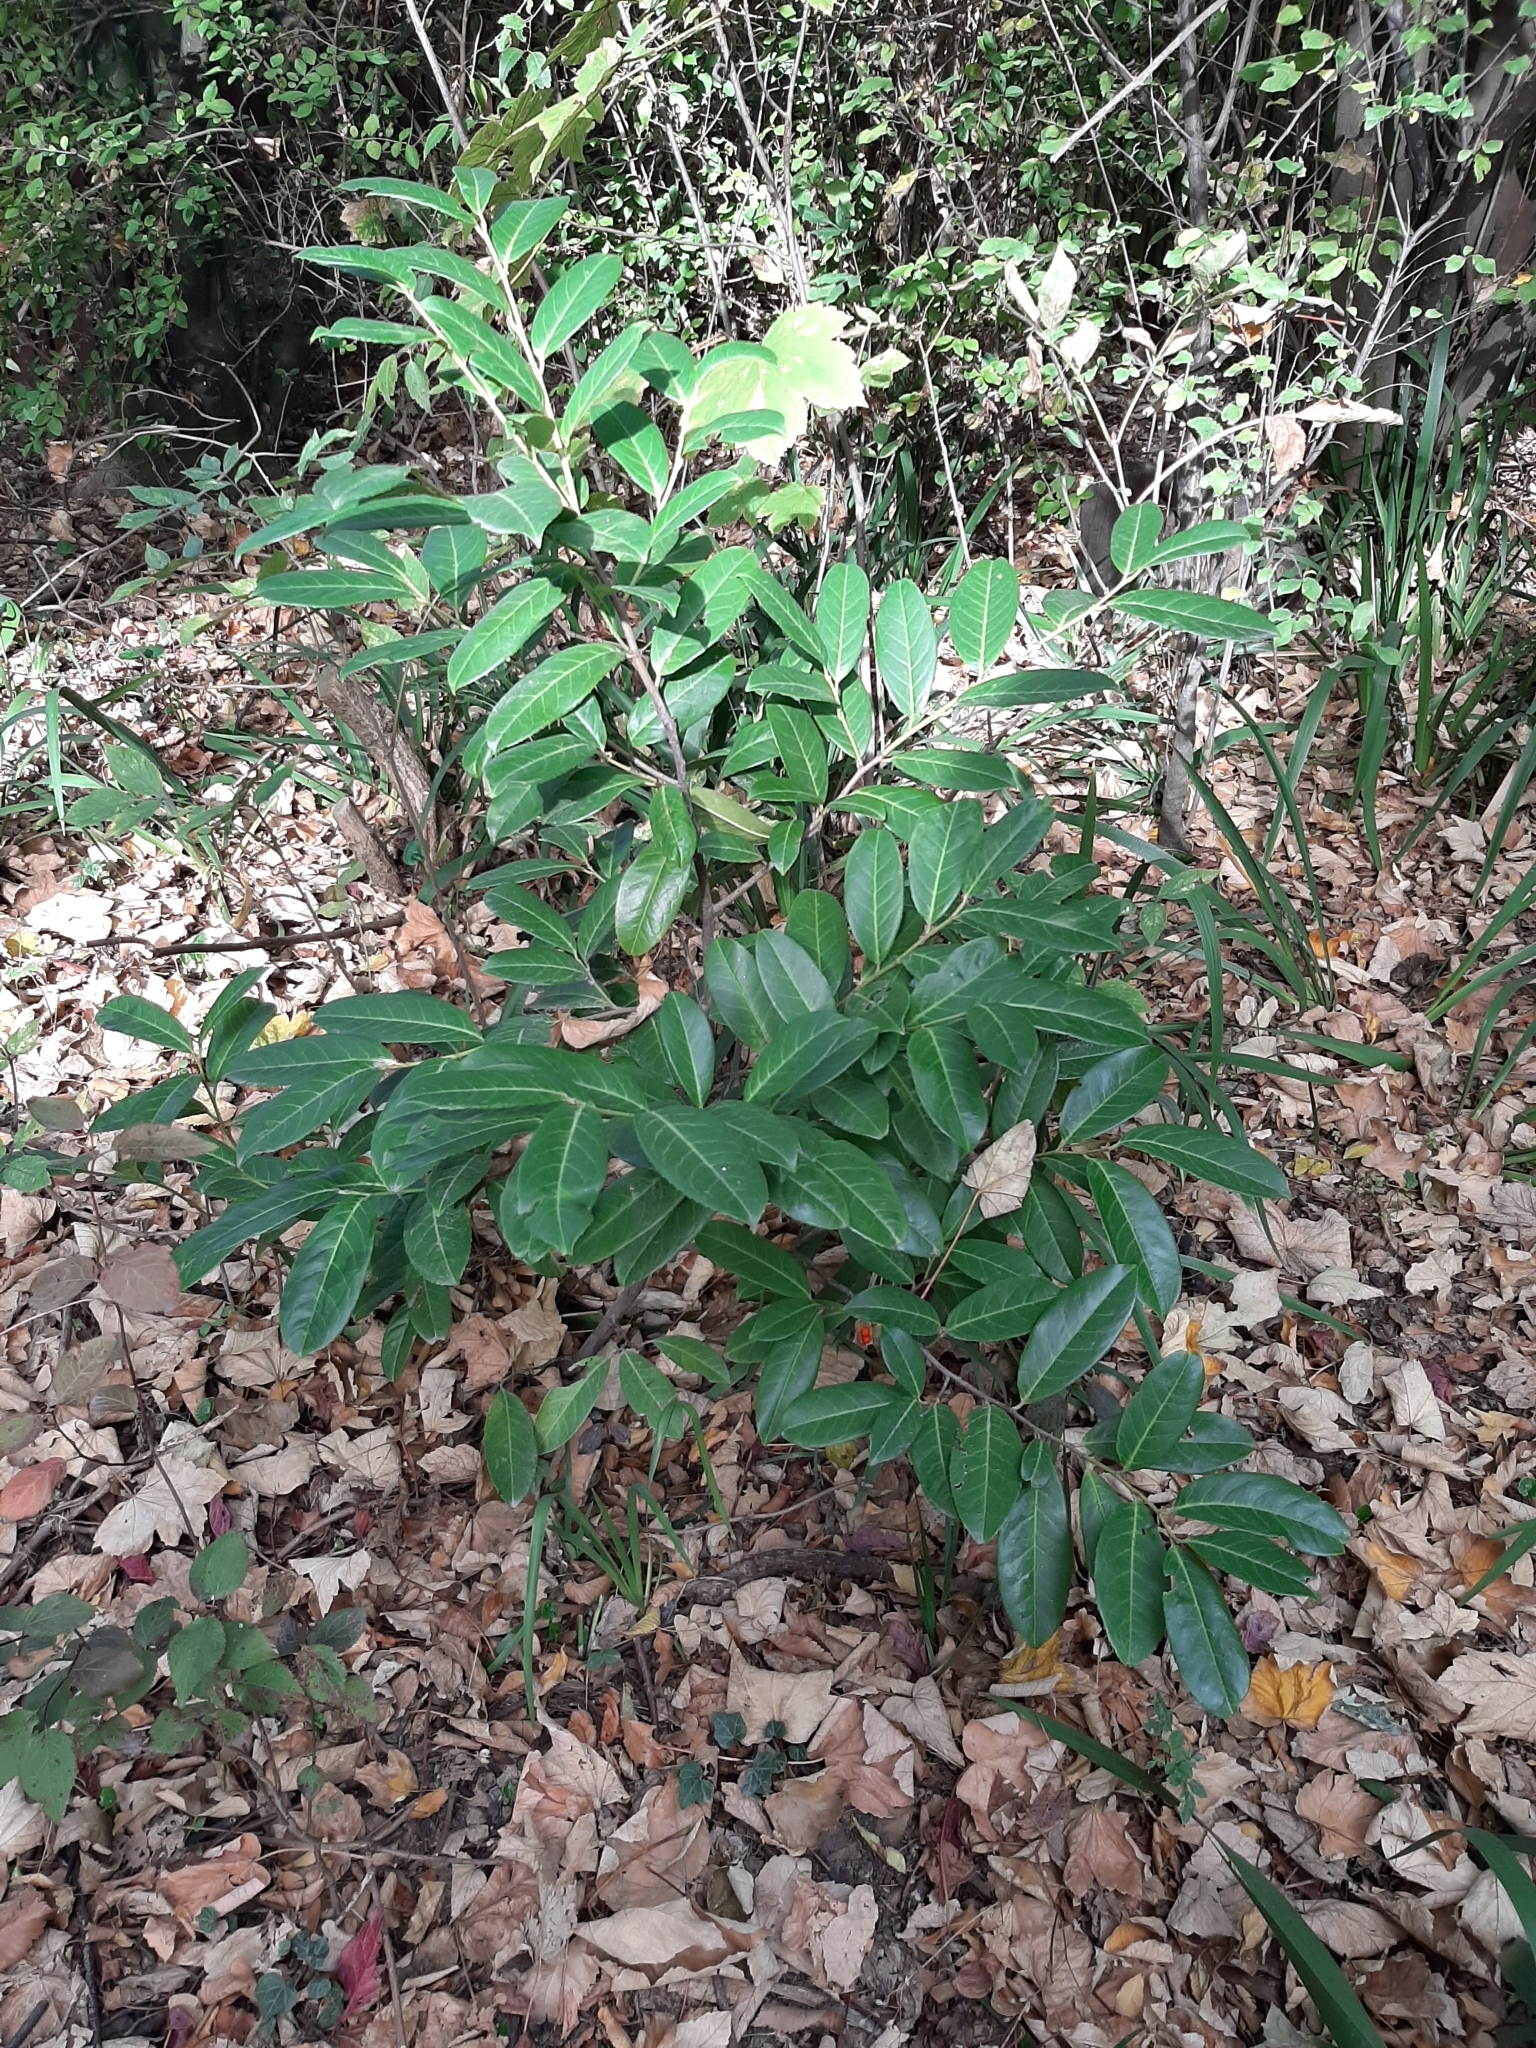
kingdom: Plantae
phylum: Tracheophyta
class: Magnoliopsida
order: Rosales
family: Rosaceae
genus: Prunus
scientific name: Prunus laurocerasus
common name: Cherry laurel
